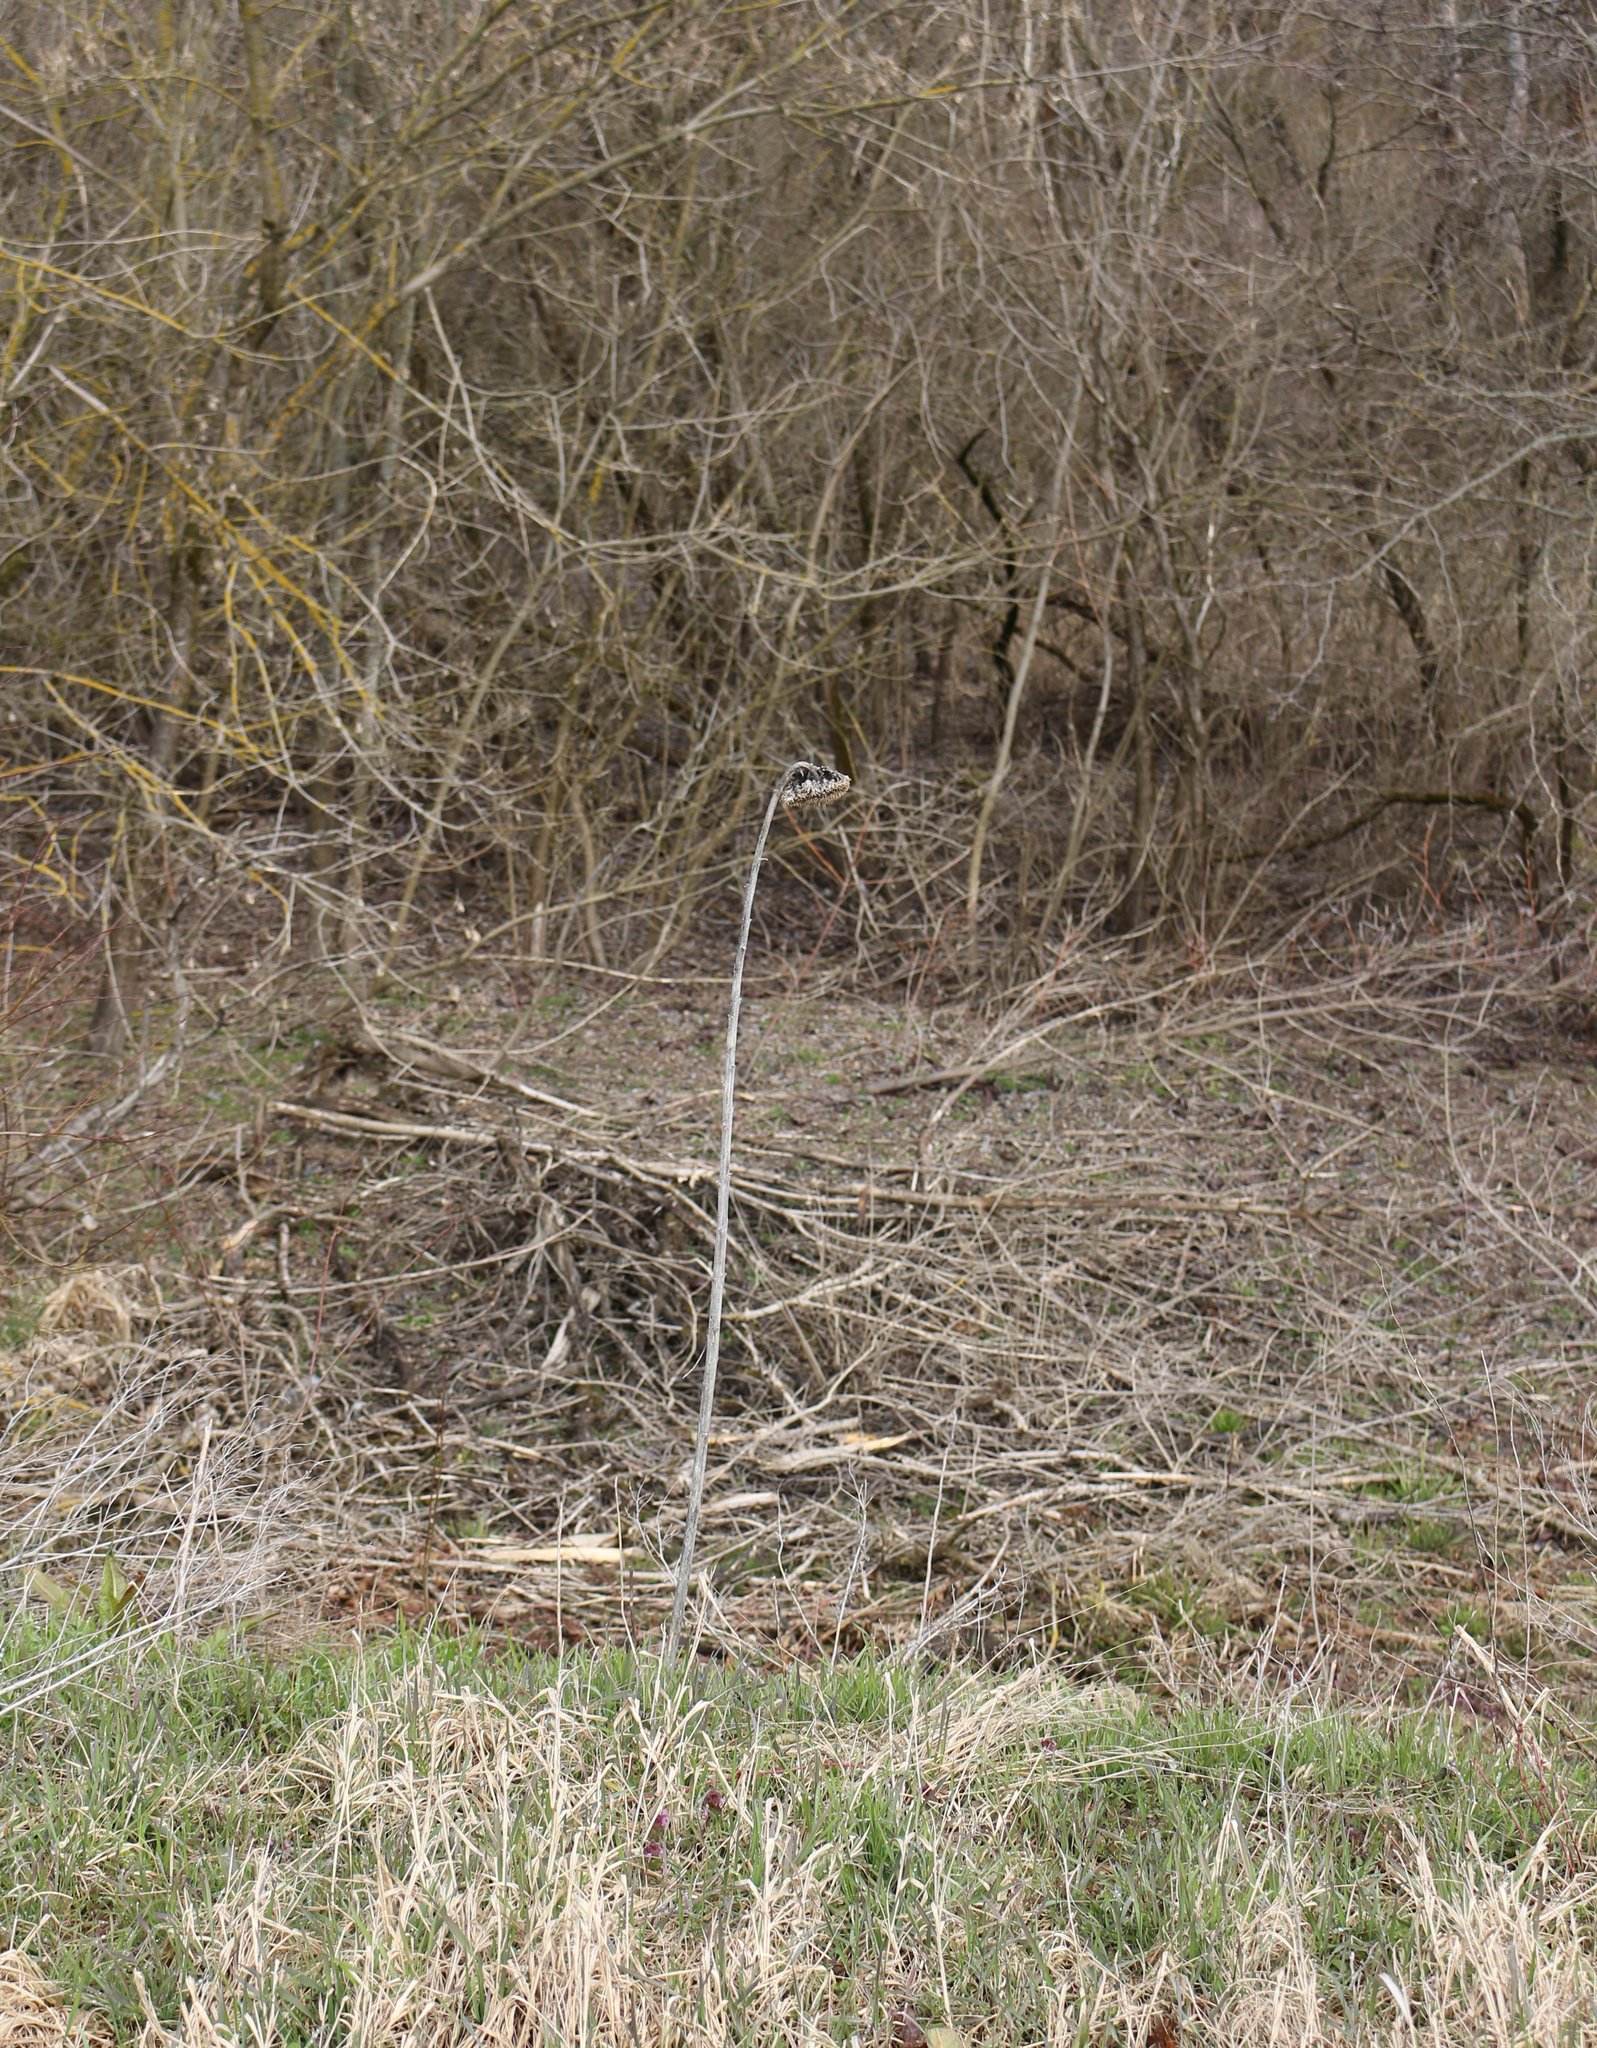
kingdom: Plantae
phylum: Tracheophyta
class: Magnoliopsida
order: Asterales
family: Asteraceae
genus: Helianthus
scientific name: Helianthus annuus
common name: Sunflower
